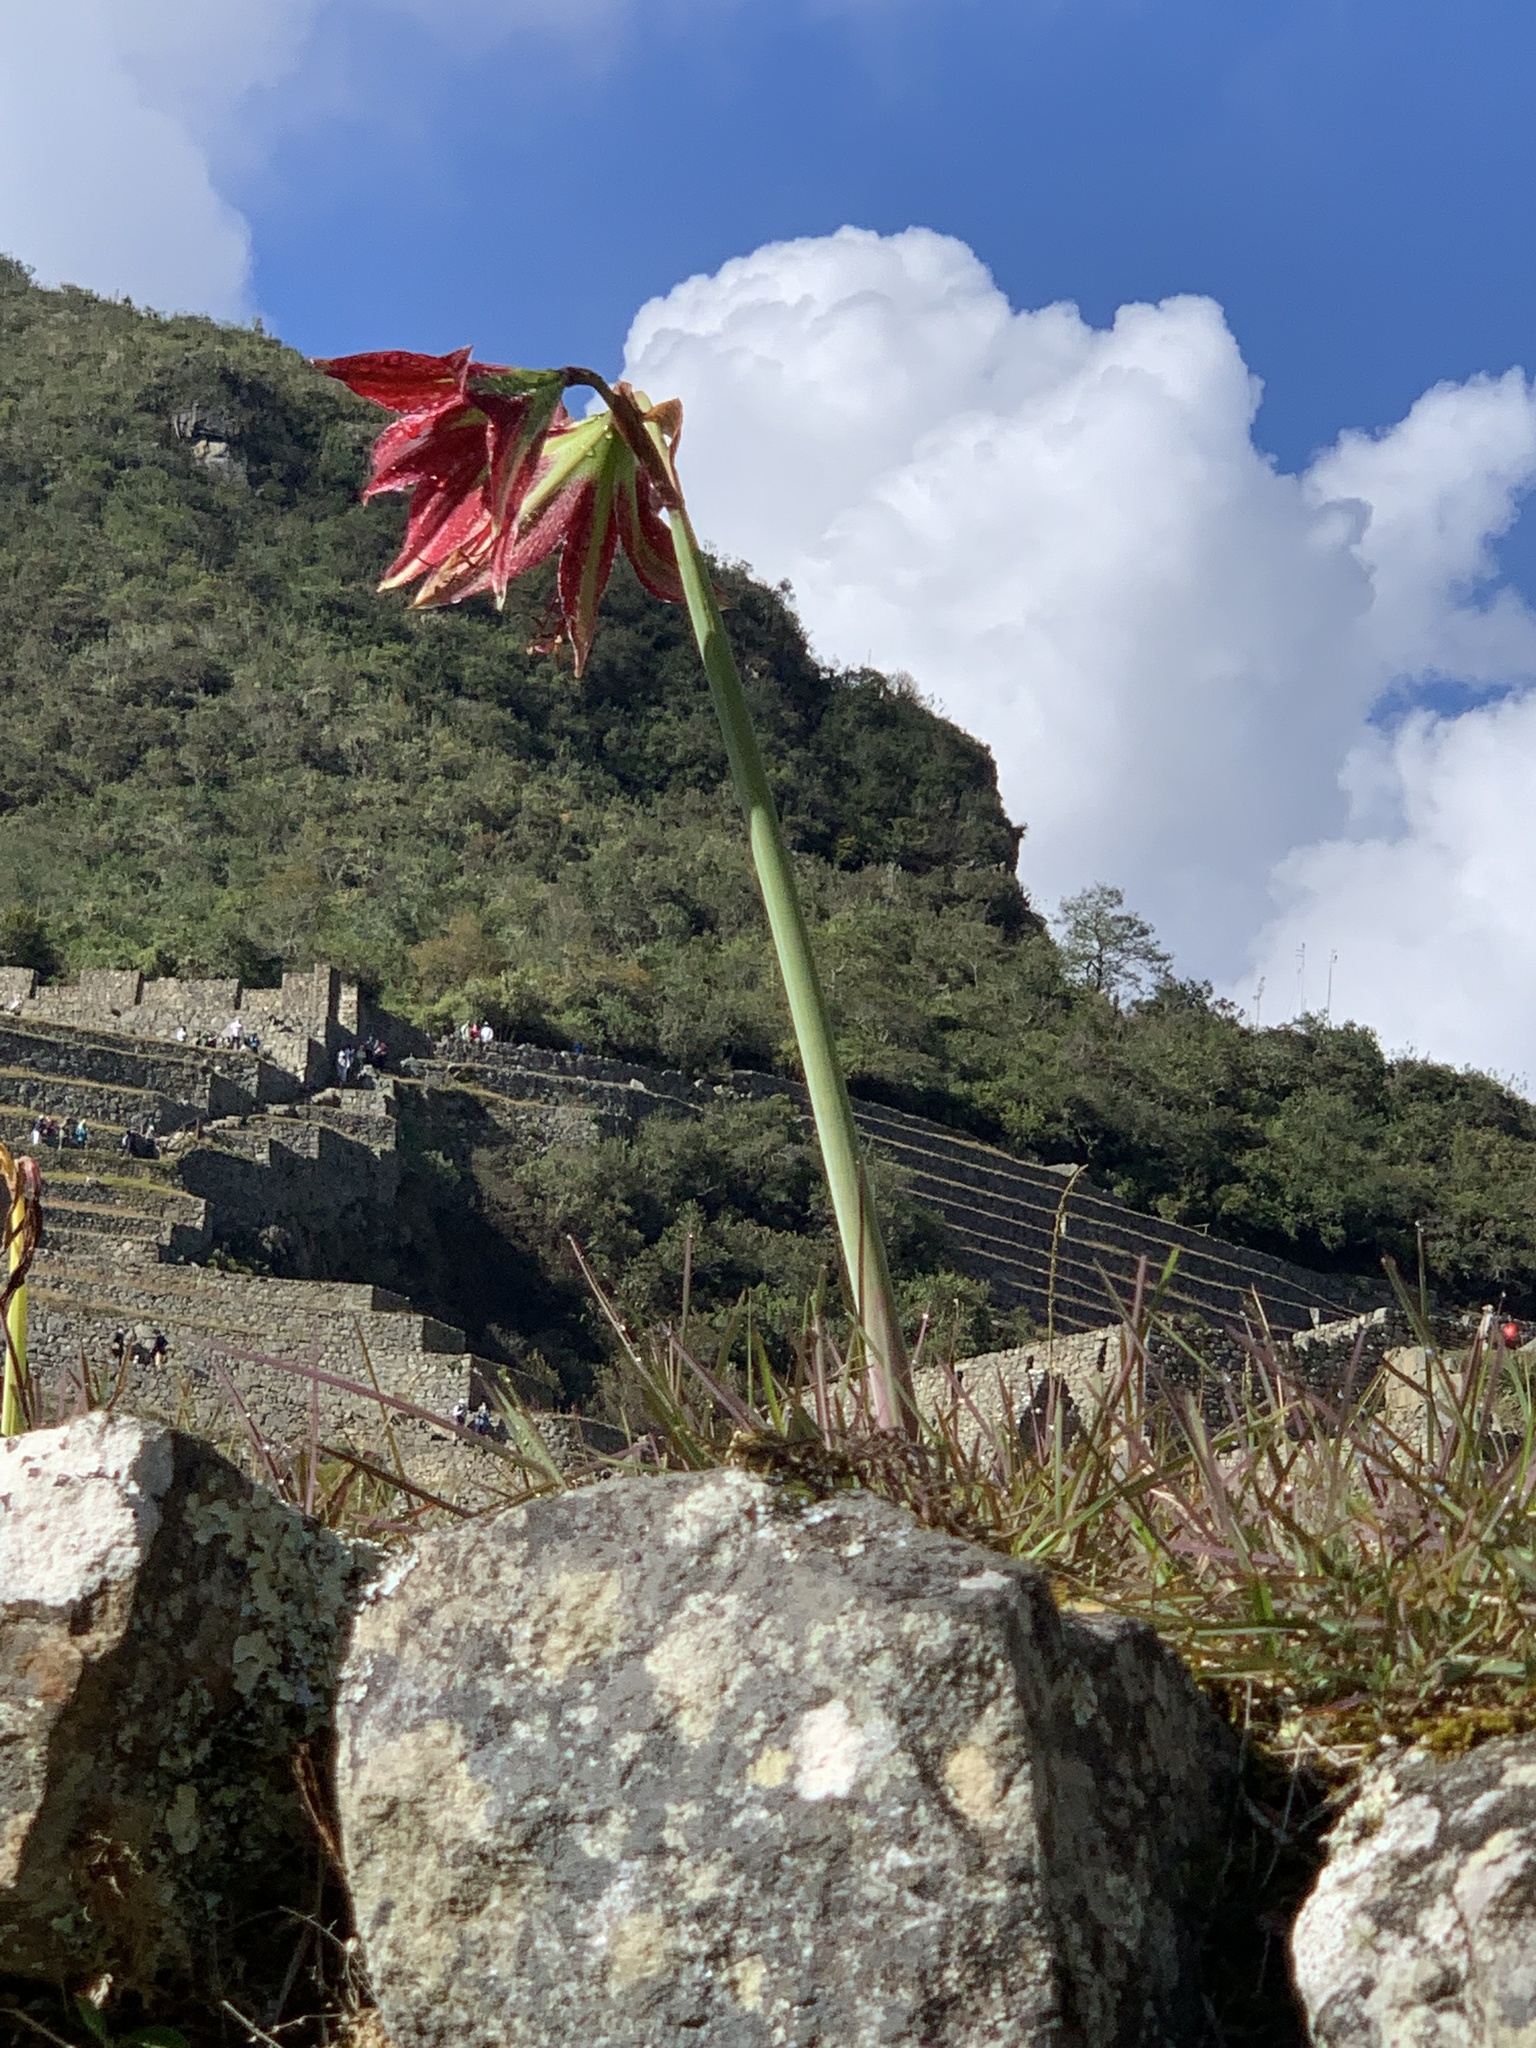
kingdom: Plantae
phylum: Tracheophyta
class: Liliopsida
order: Asparagales
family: Amaryllidaceae
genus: Hippeastrum
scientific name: Hippeastrum machupijchense
